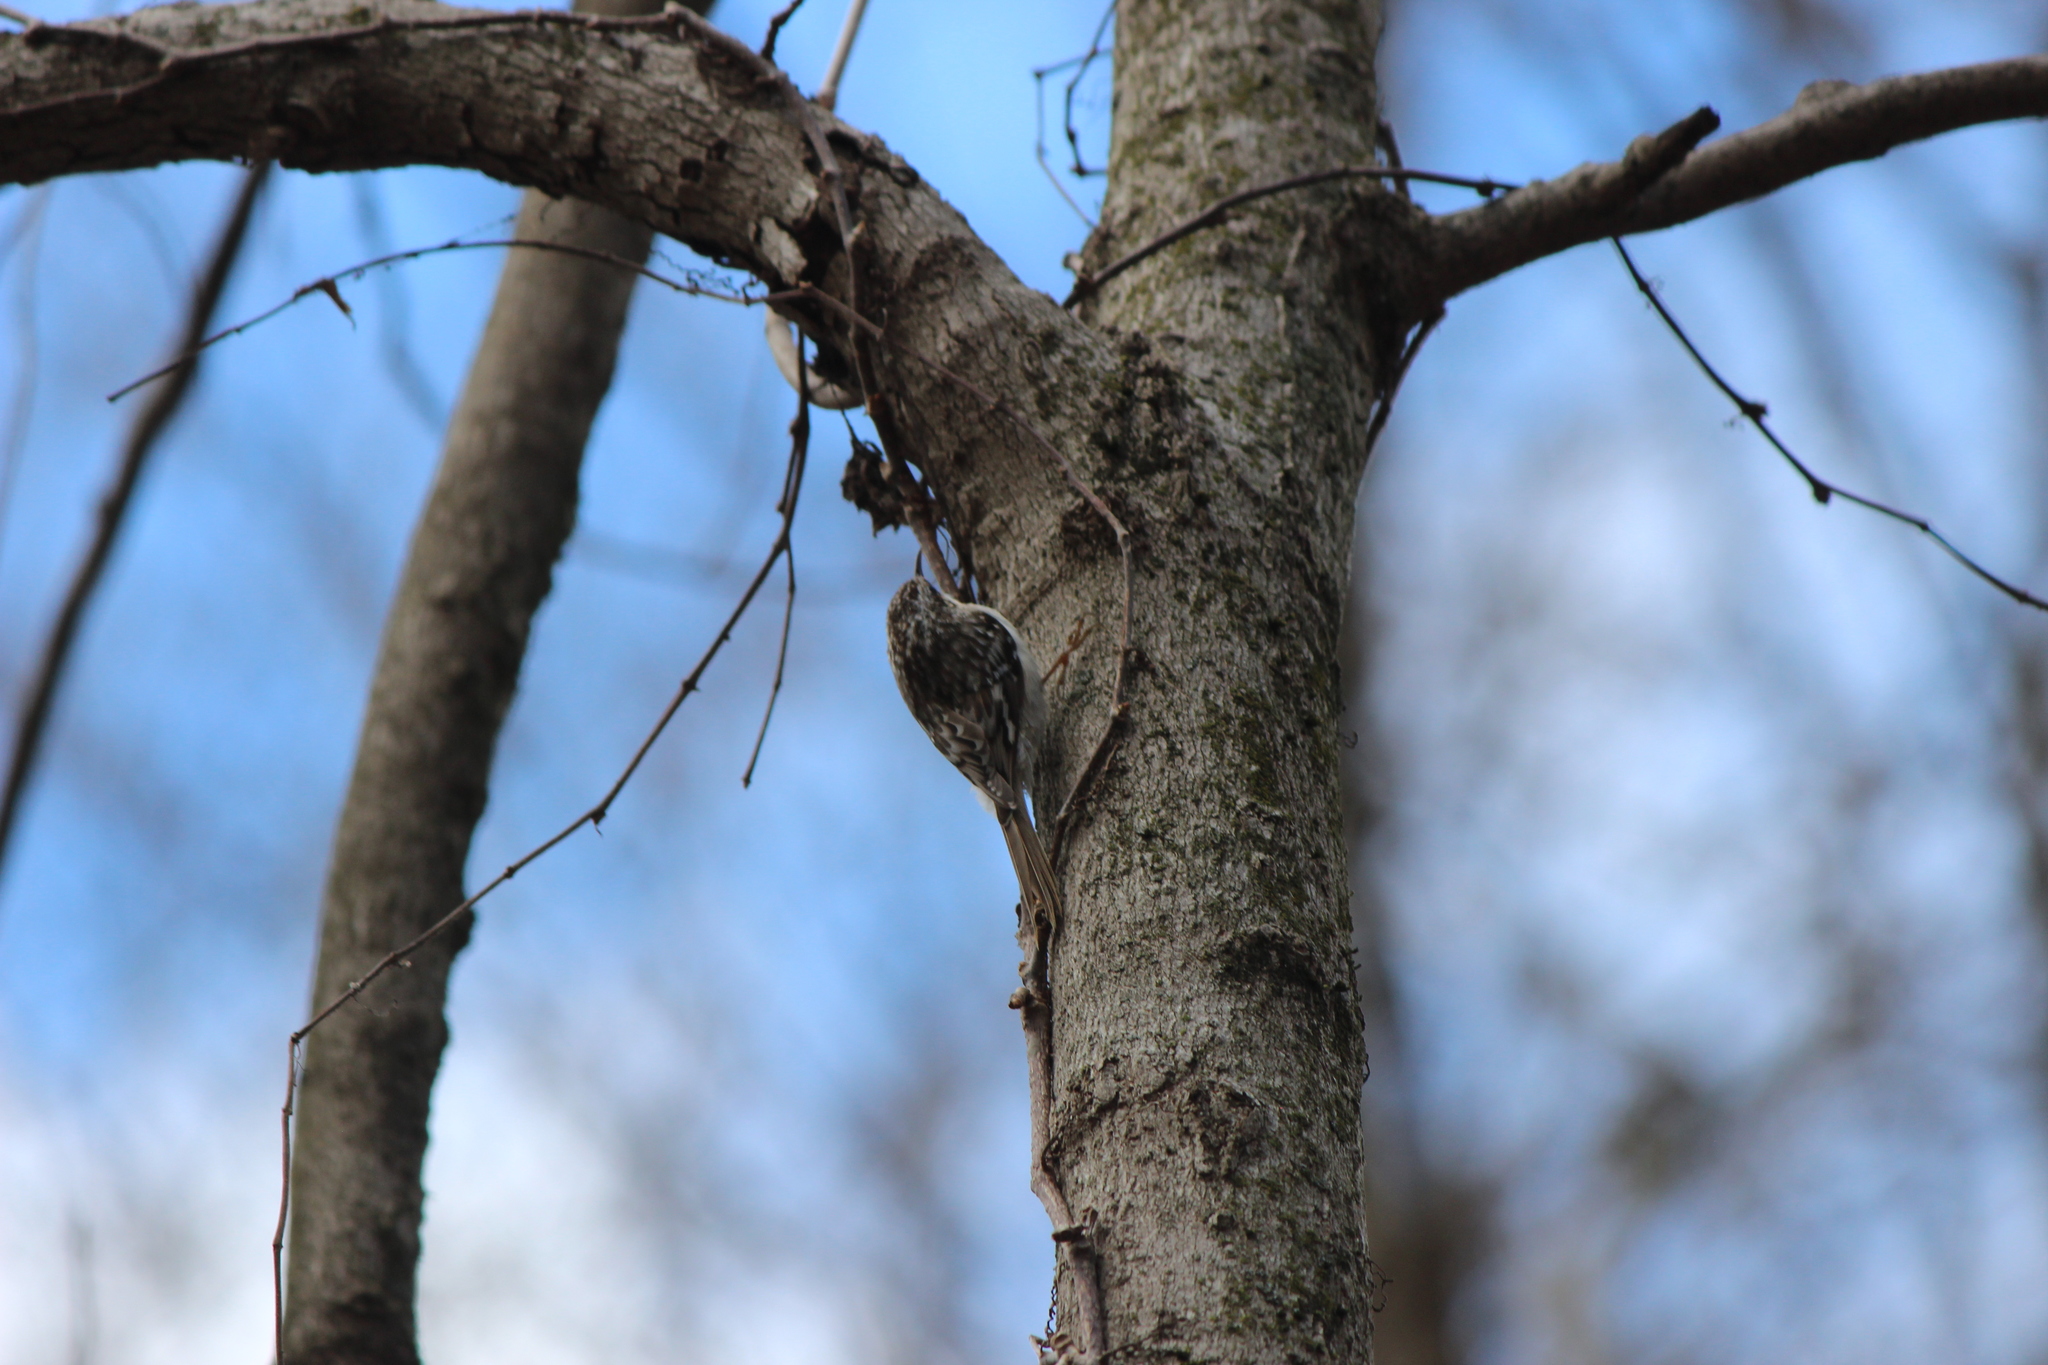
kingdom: Animalia
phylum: Chordata
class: Aves
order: Passeriformes
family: Certhiidae
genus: Certhia
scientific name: Certhia americana
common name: Brown creeper
